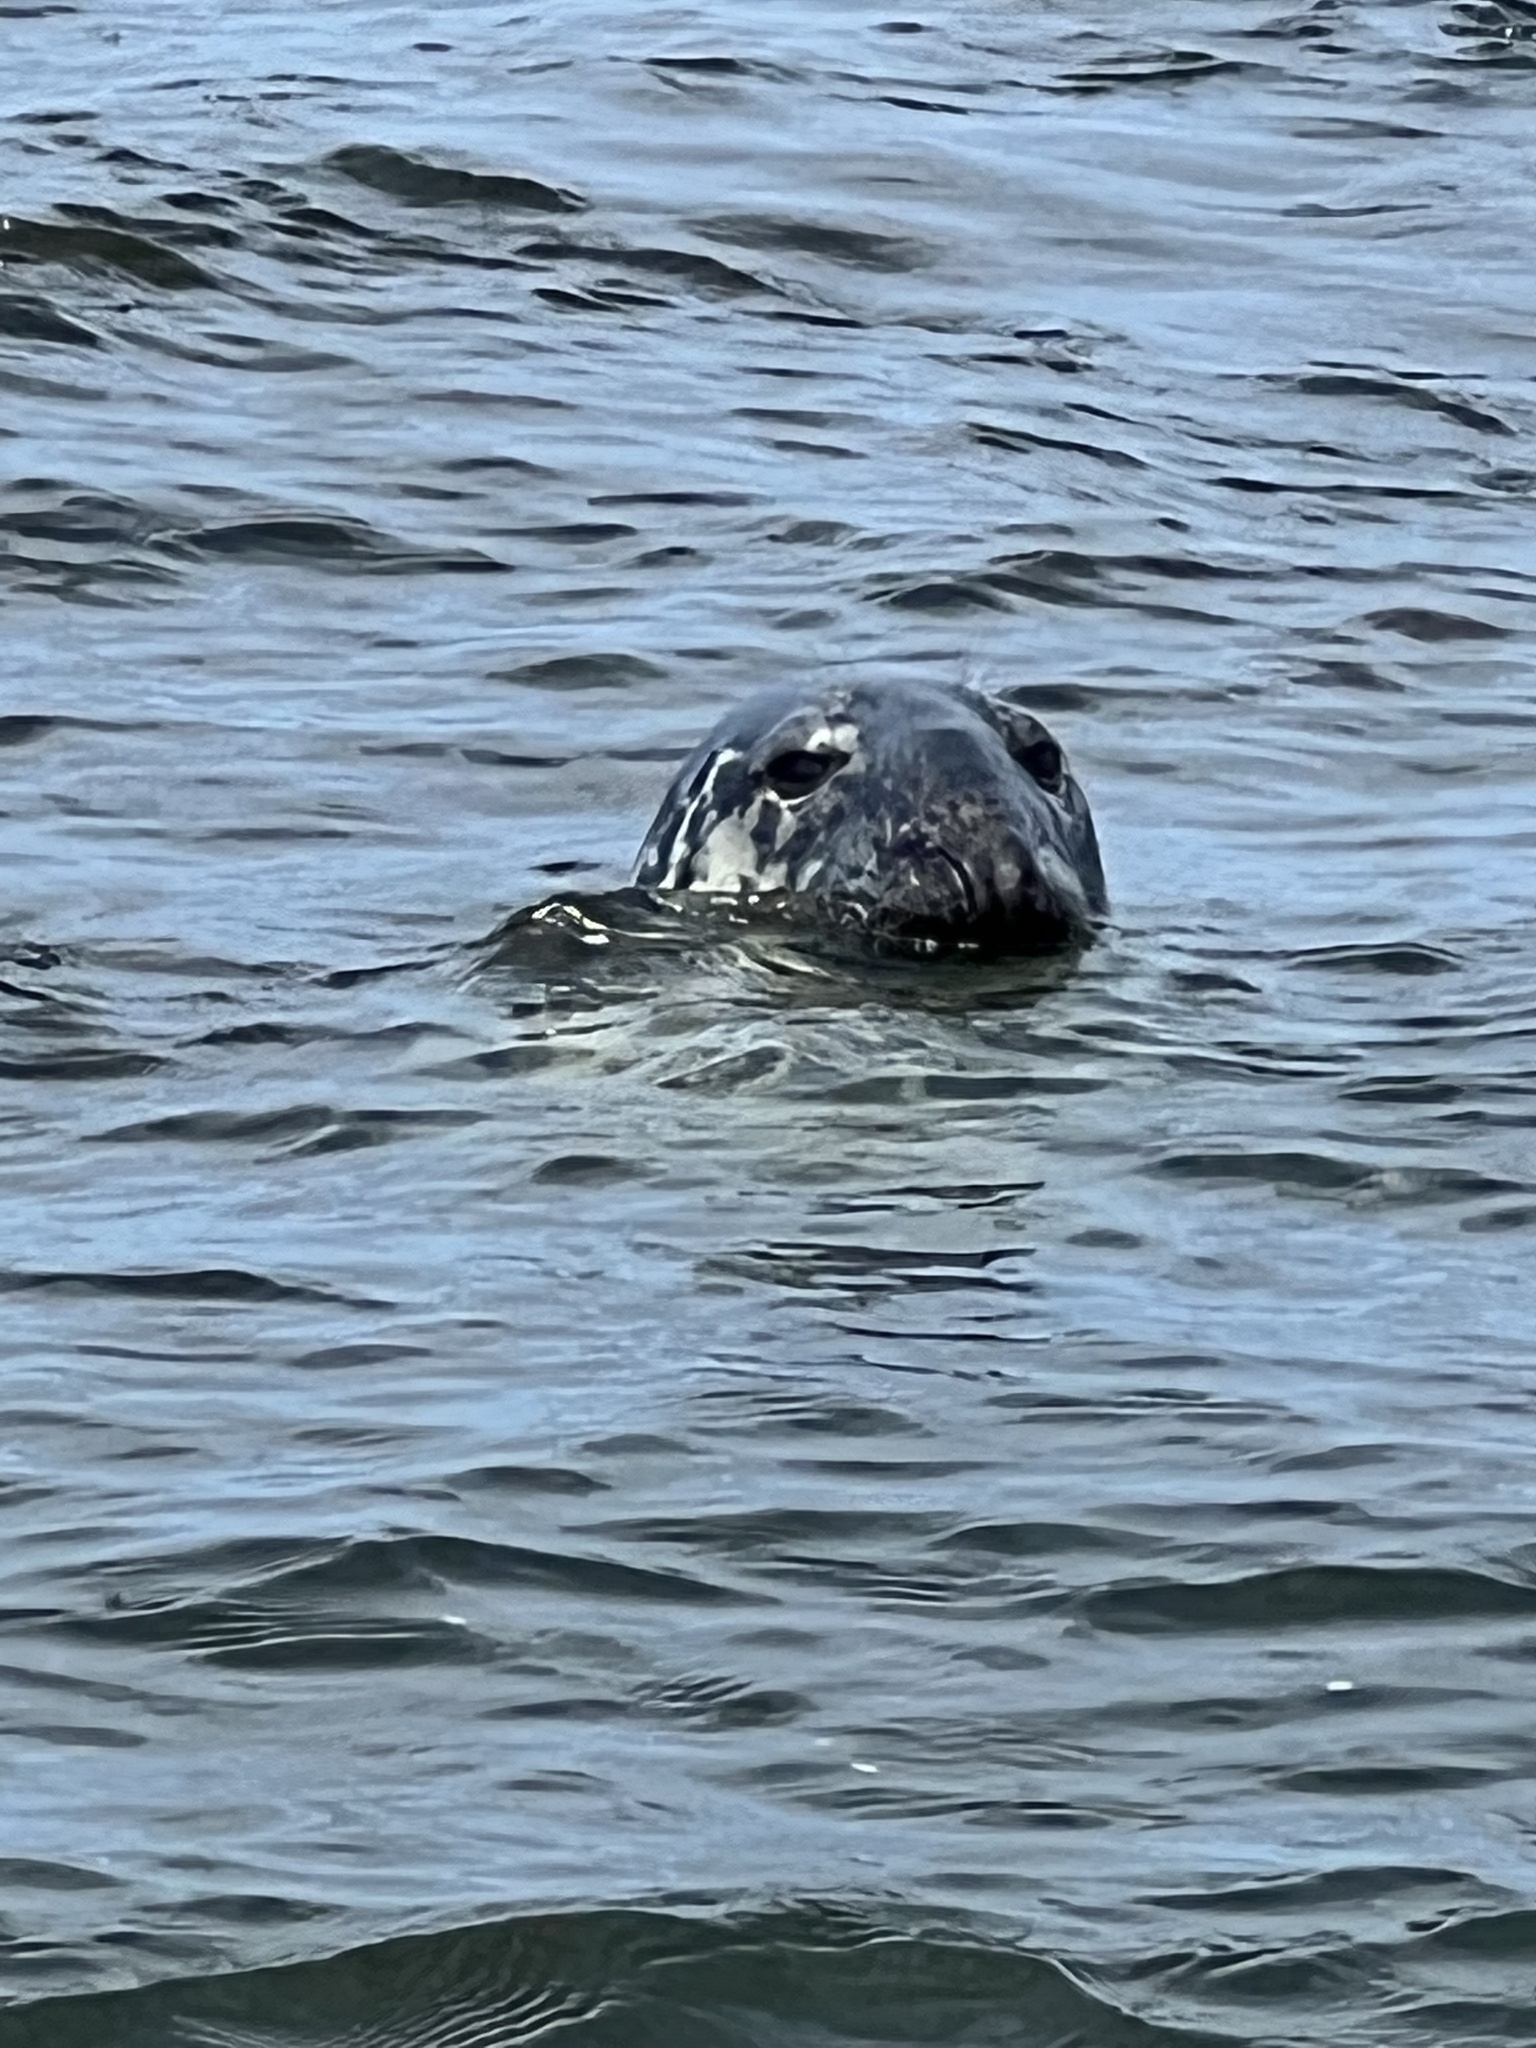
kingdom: Animalia
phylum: Chordata
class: Mammalia
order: Carnivora
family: Phocidae
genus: Halichoerus
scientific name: Halichoerus grypus
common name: Grey seal
